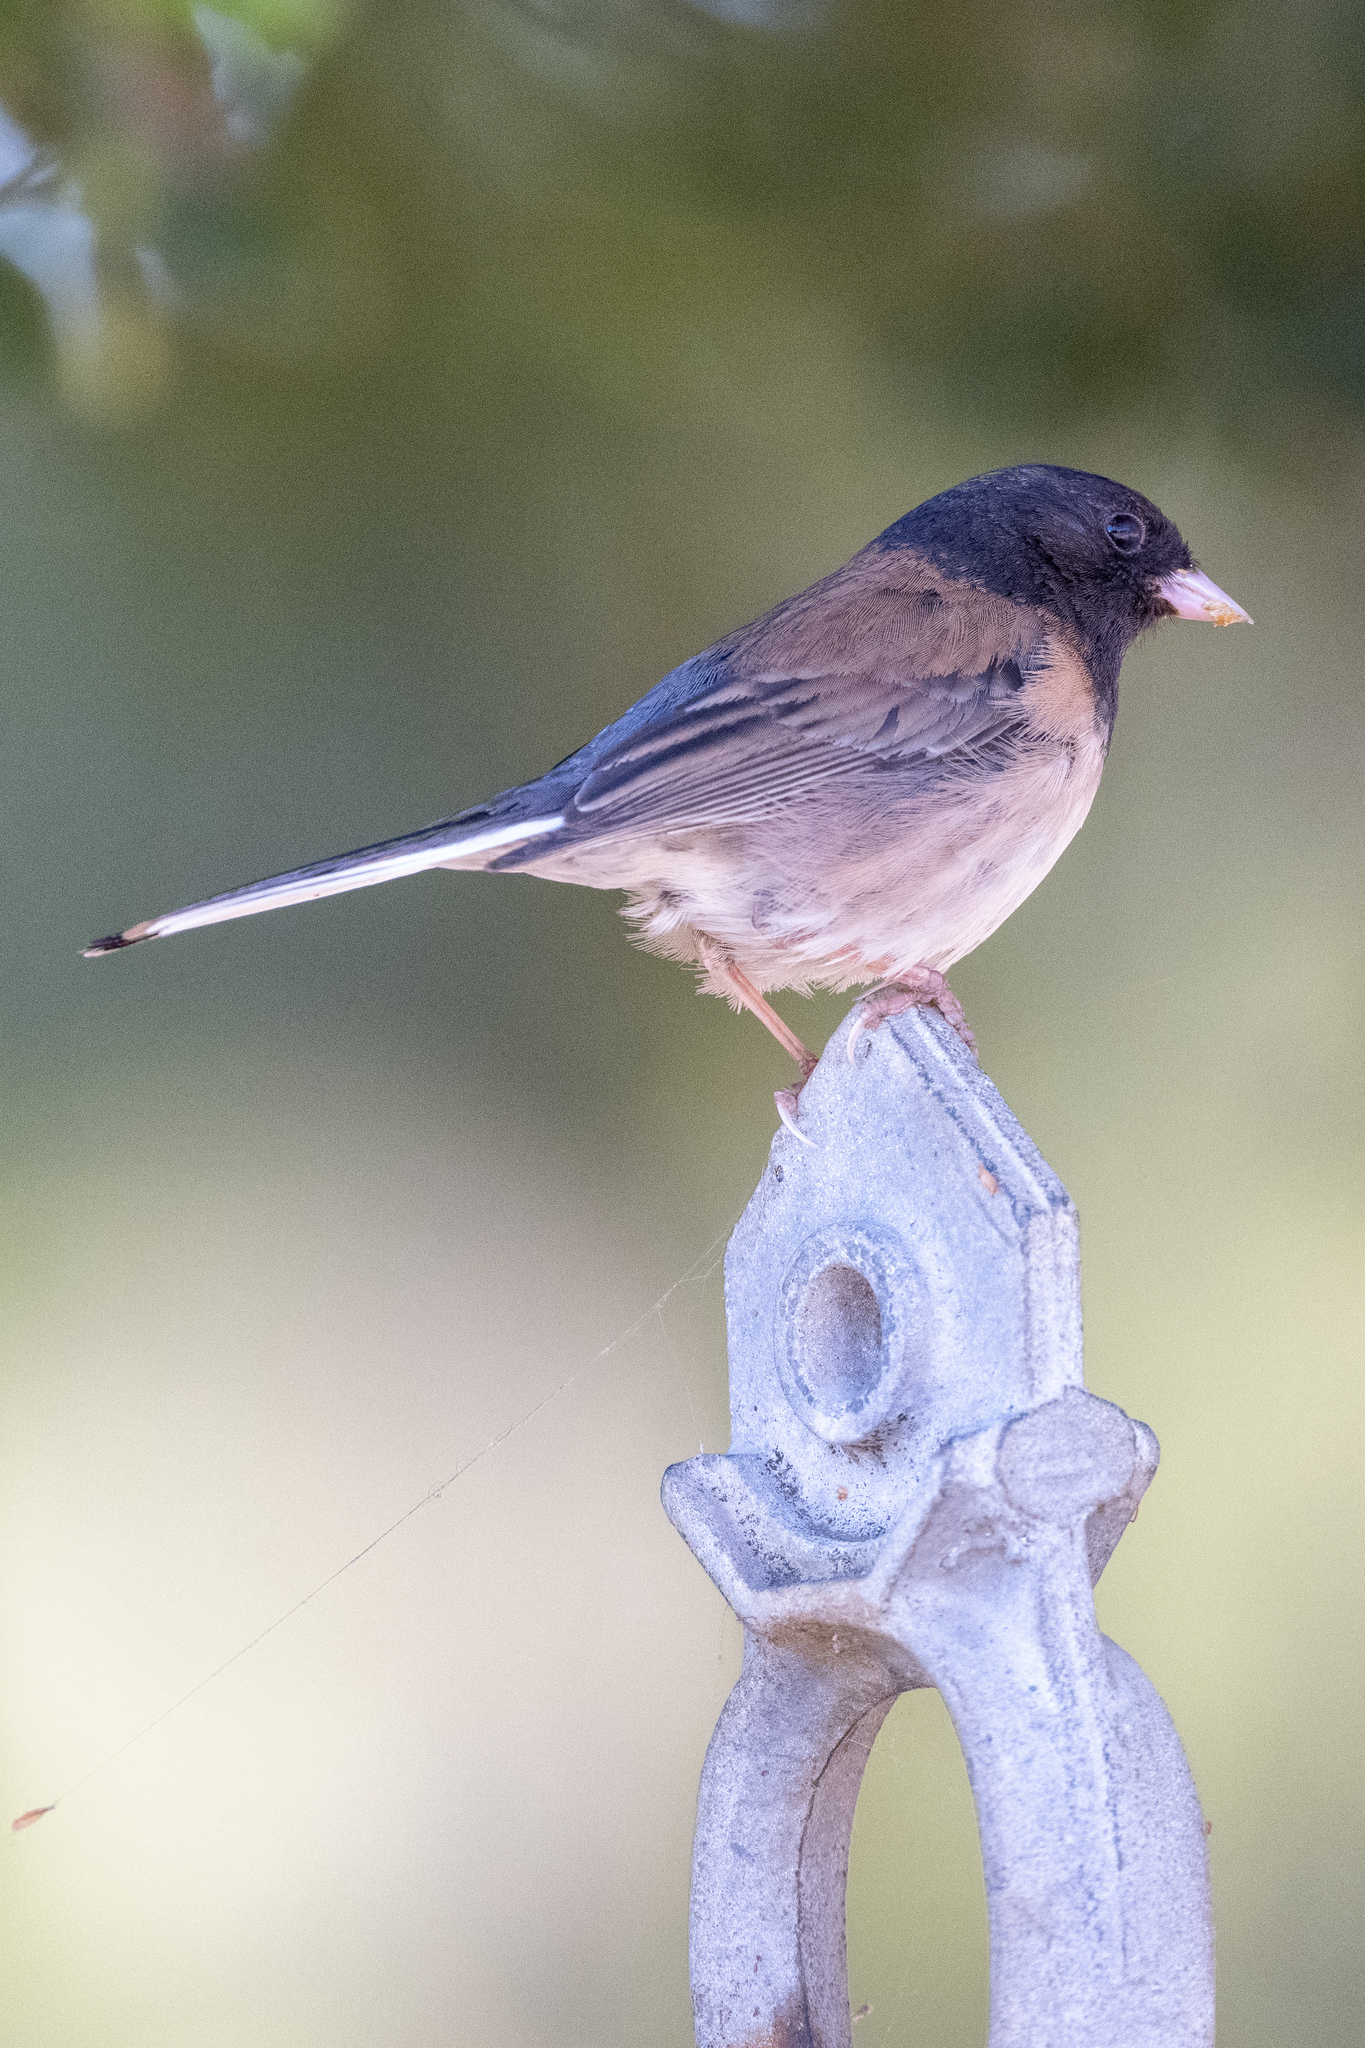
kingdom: Animalia
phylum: Chordata
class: Aves
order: Passeriformes
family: Passerellidae
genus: Junco
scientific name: Junco hyemalis
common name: Dark-eyed junco
